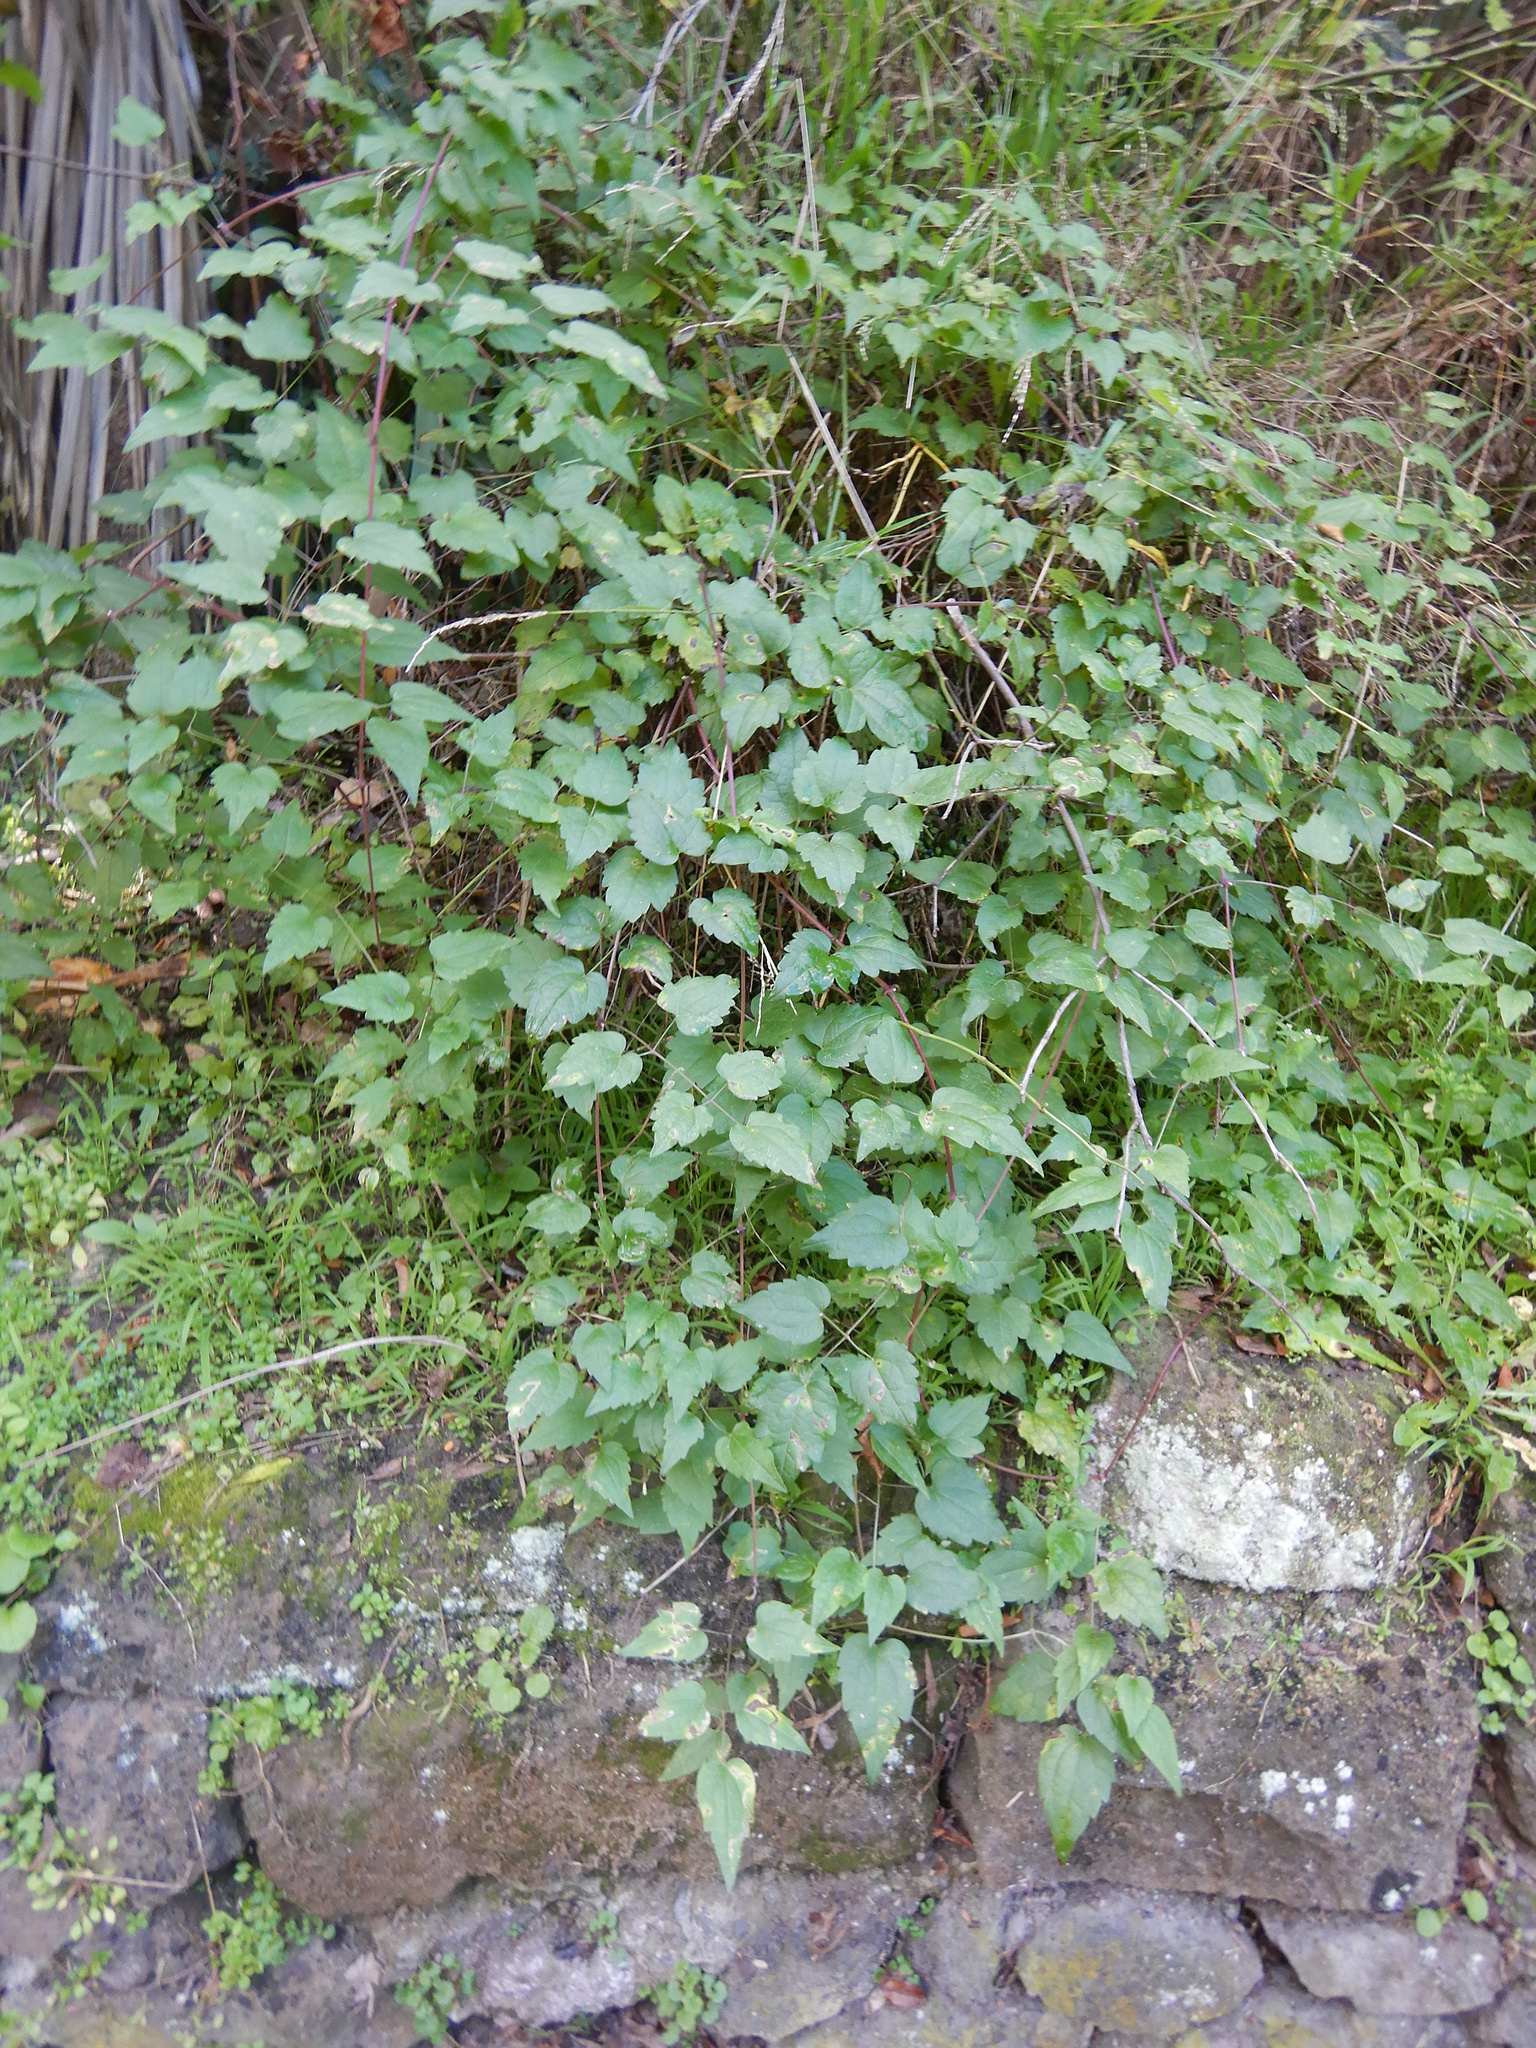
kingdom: Plantae
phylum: Tracheophyta
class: Magnoliopsida
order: Ranunculales
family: Ranunculaceae
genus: Clematis
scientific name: Clematis vitalba
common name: Evergreen clematis
